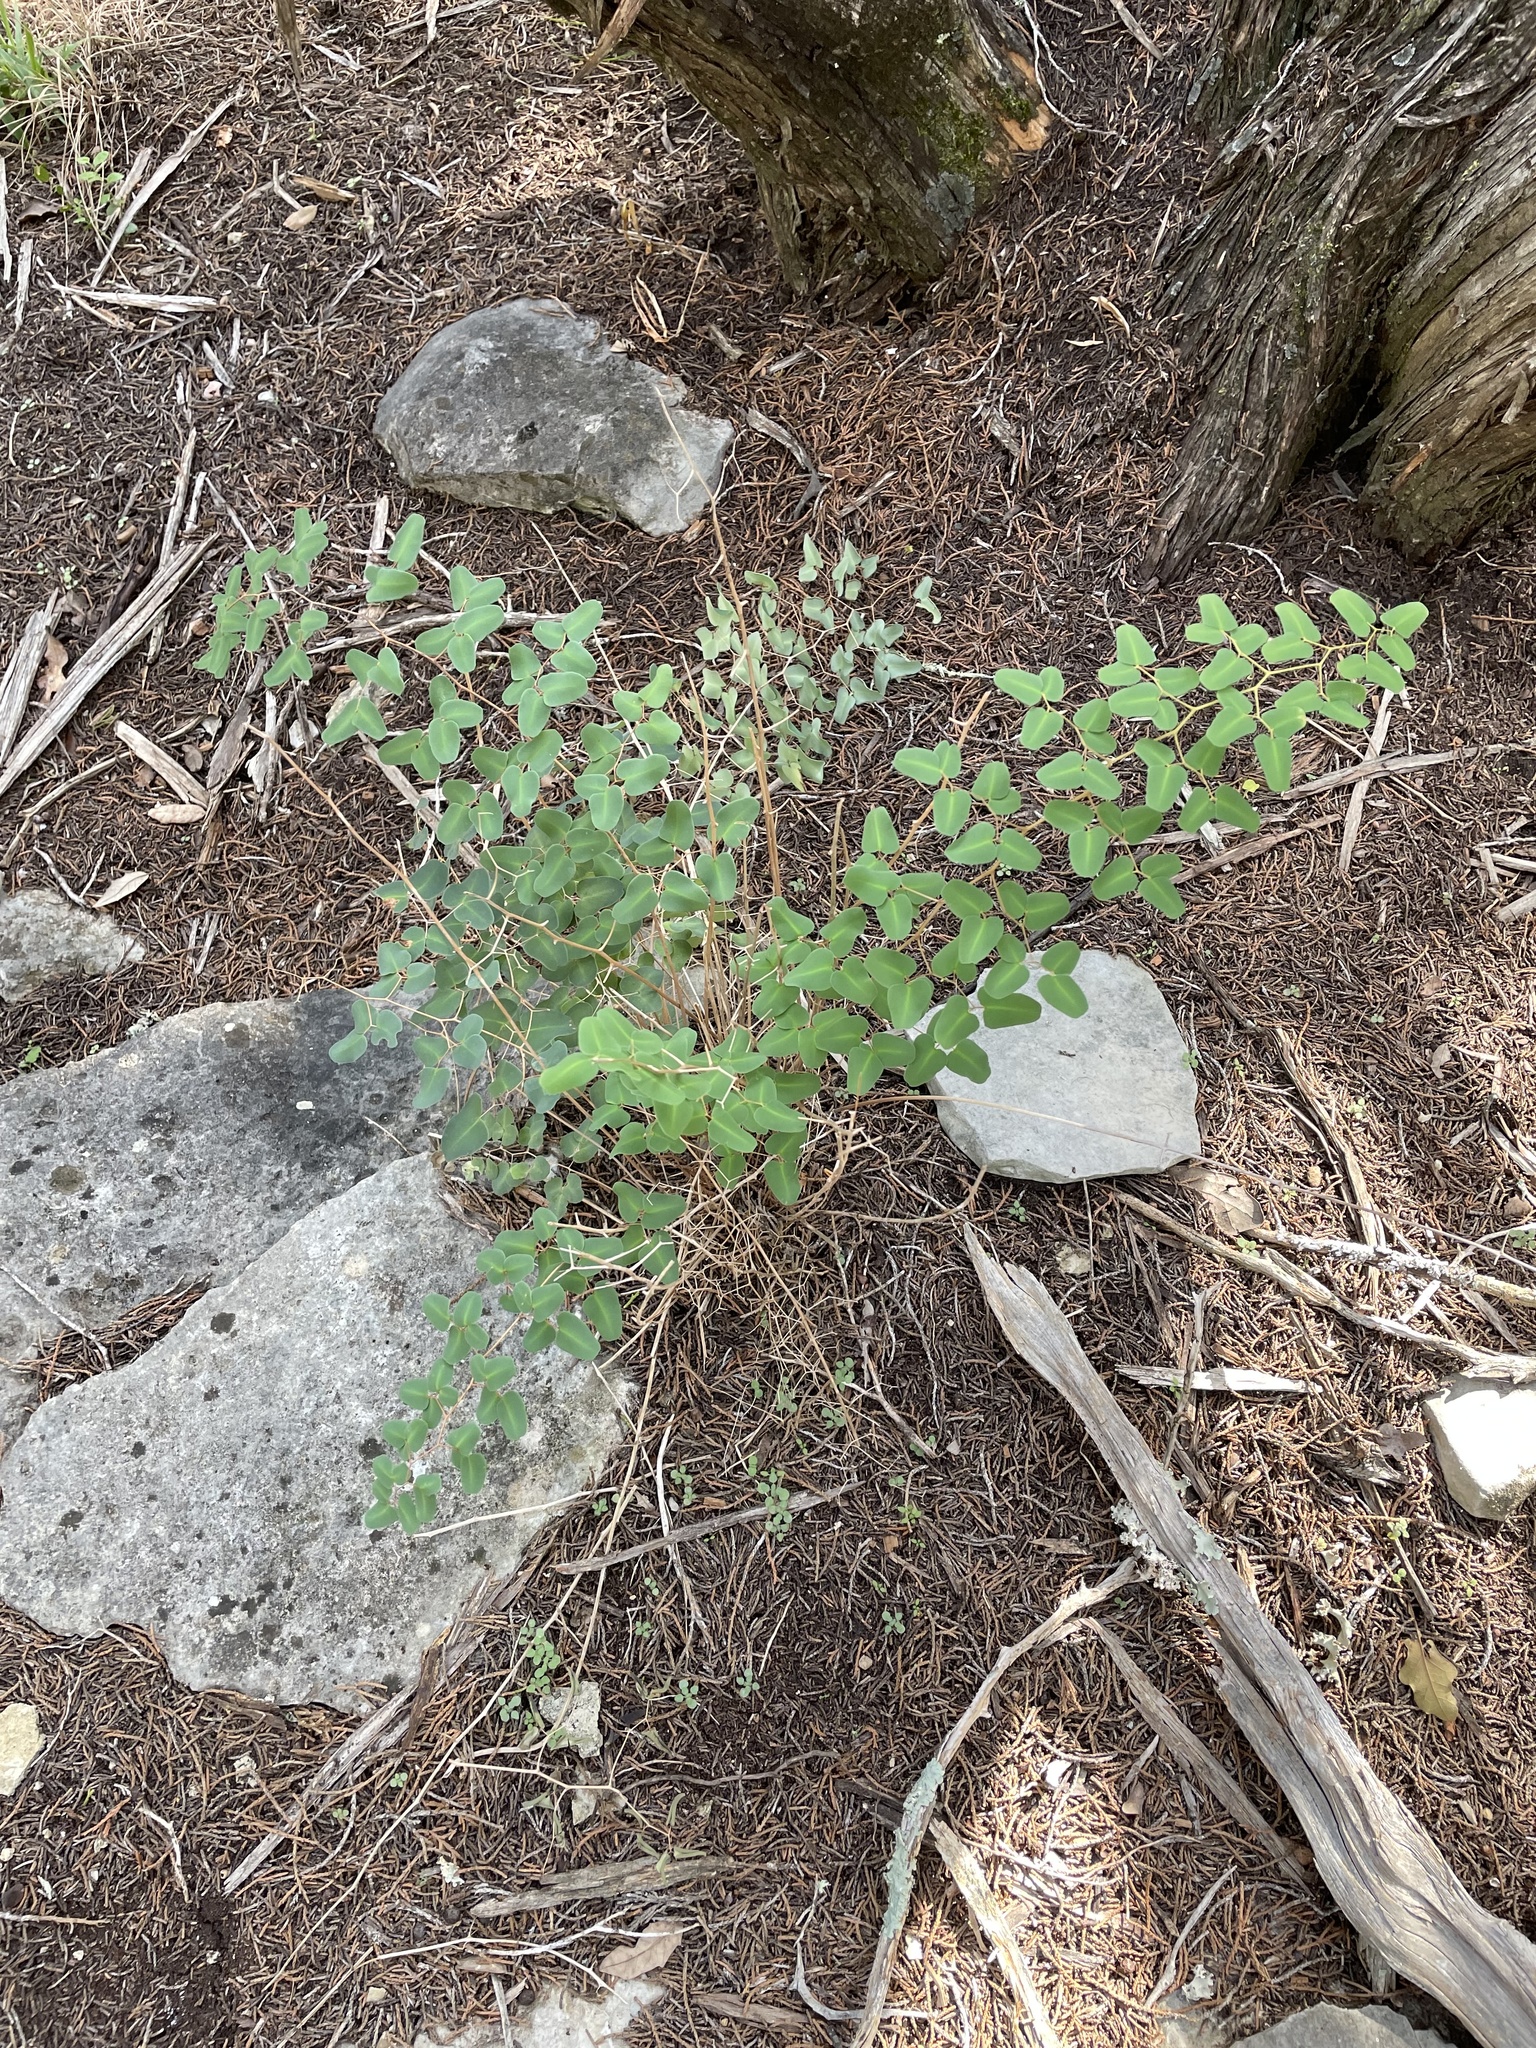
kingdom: Plantae
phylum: Tracheophyta
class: Polypodiopsida
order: Polypodiales
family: Pteridaceae
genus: Pellaea
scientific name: Pellaea ovata
